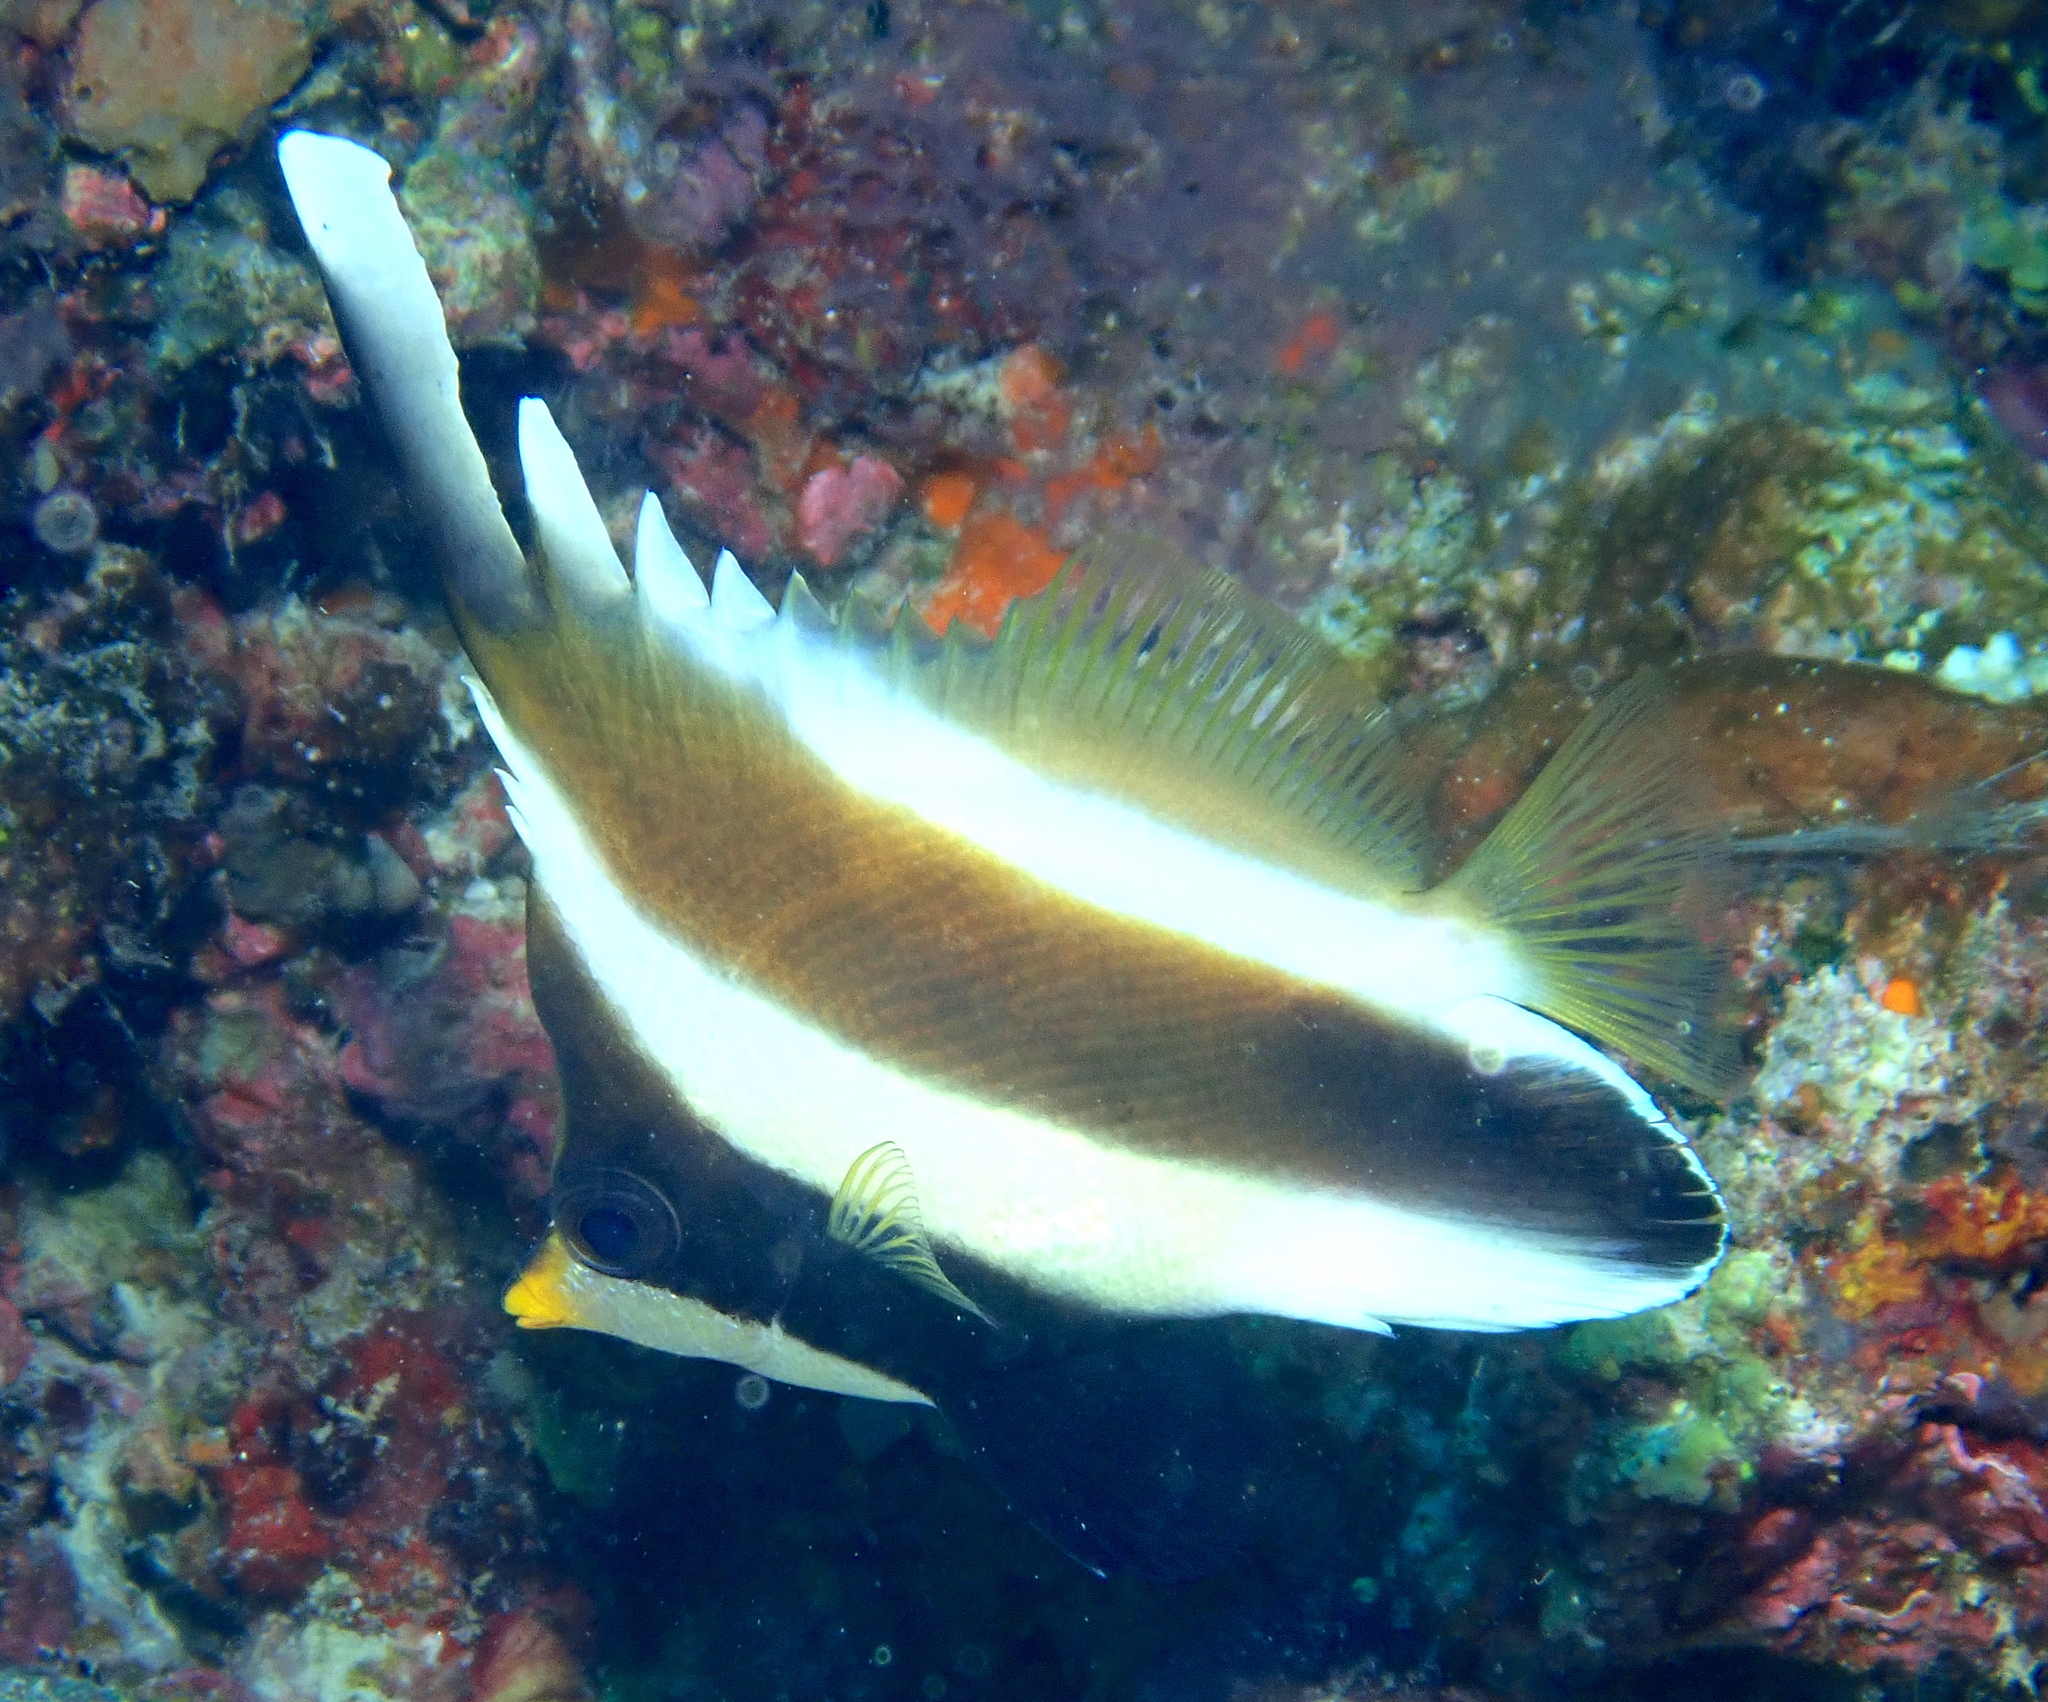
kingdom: Animalia
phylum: Chordata
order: Perciformes
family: Chaetodontidae
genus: Heniochus
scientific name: Heniochus chrysostomus
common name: Horned bannerfish
